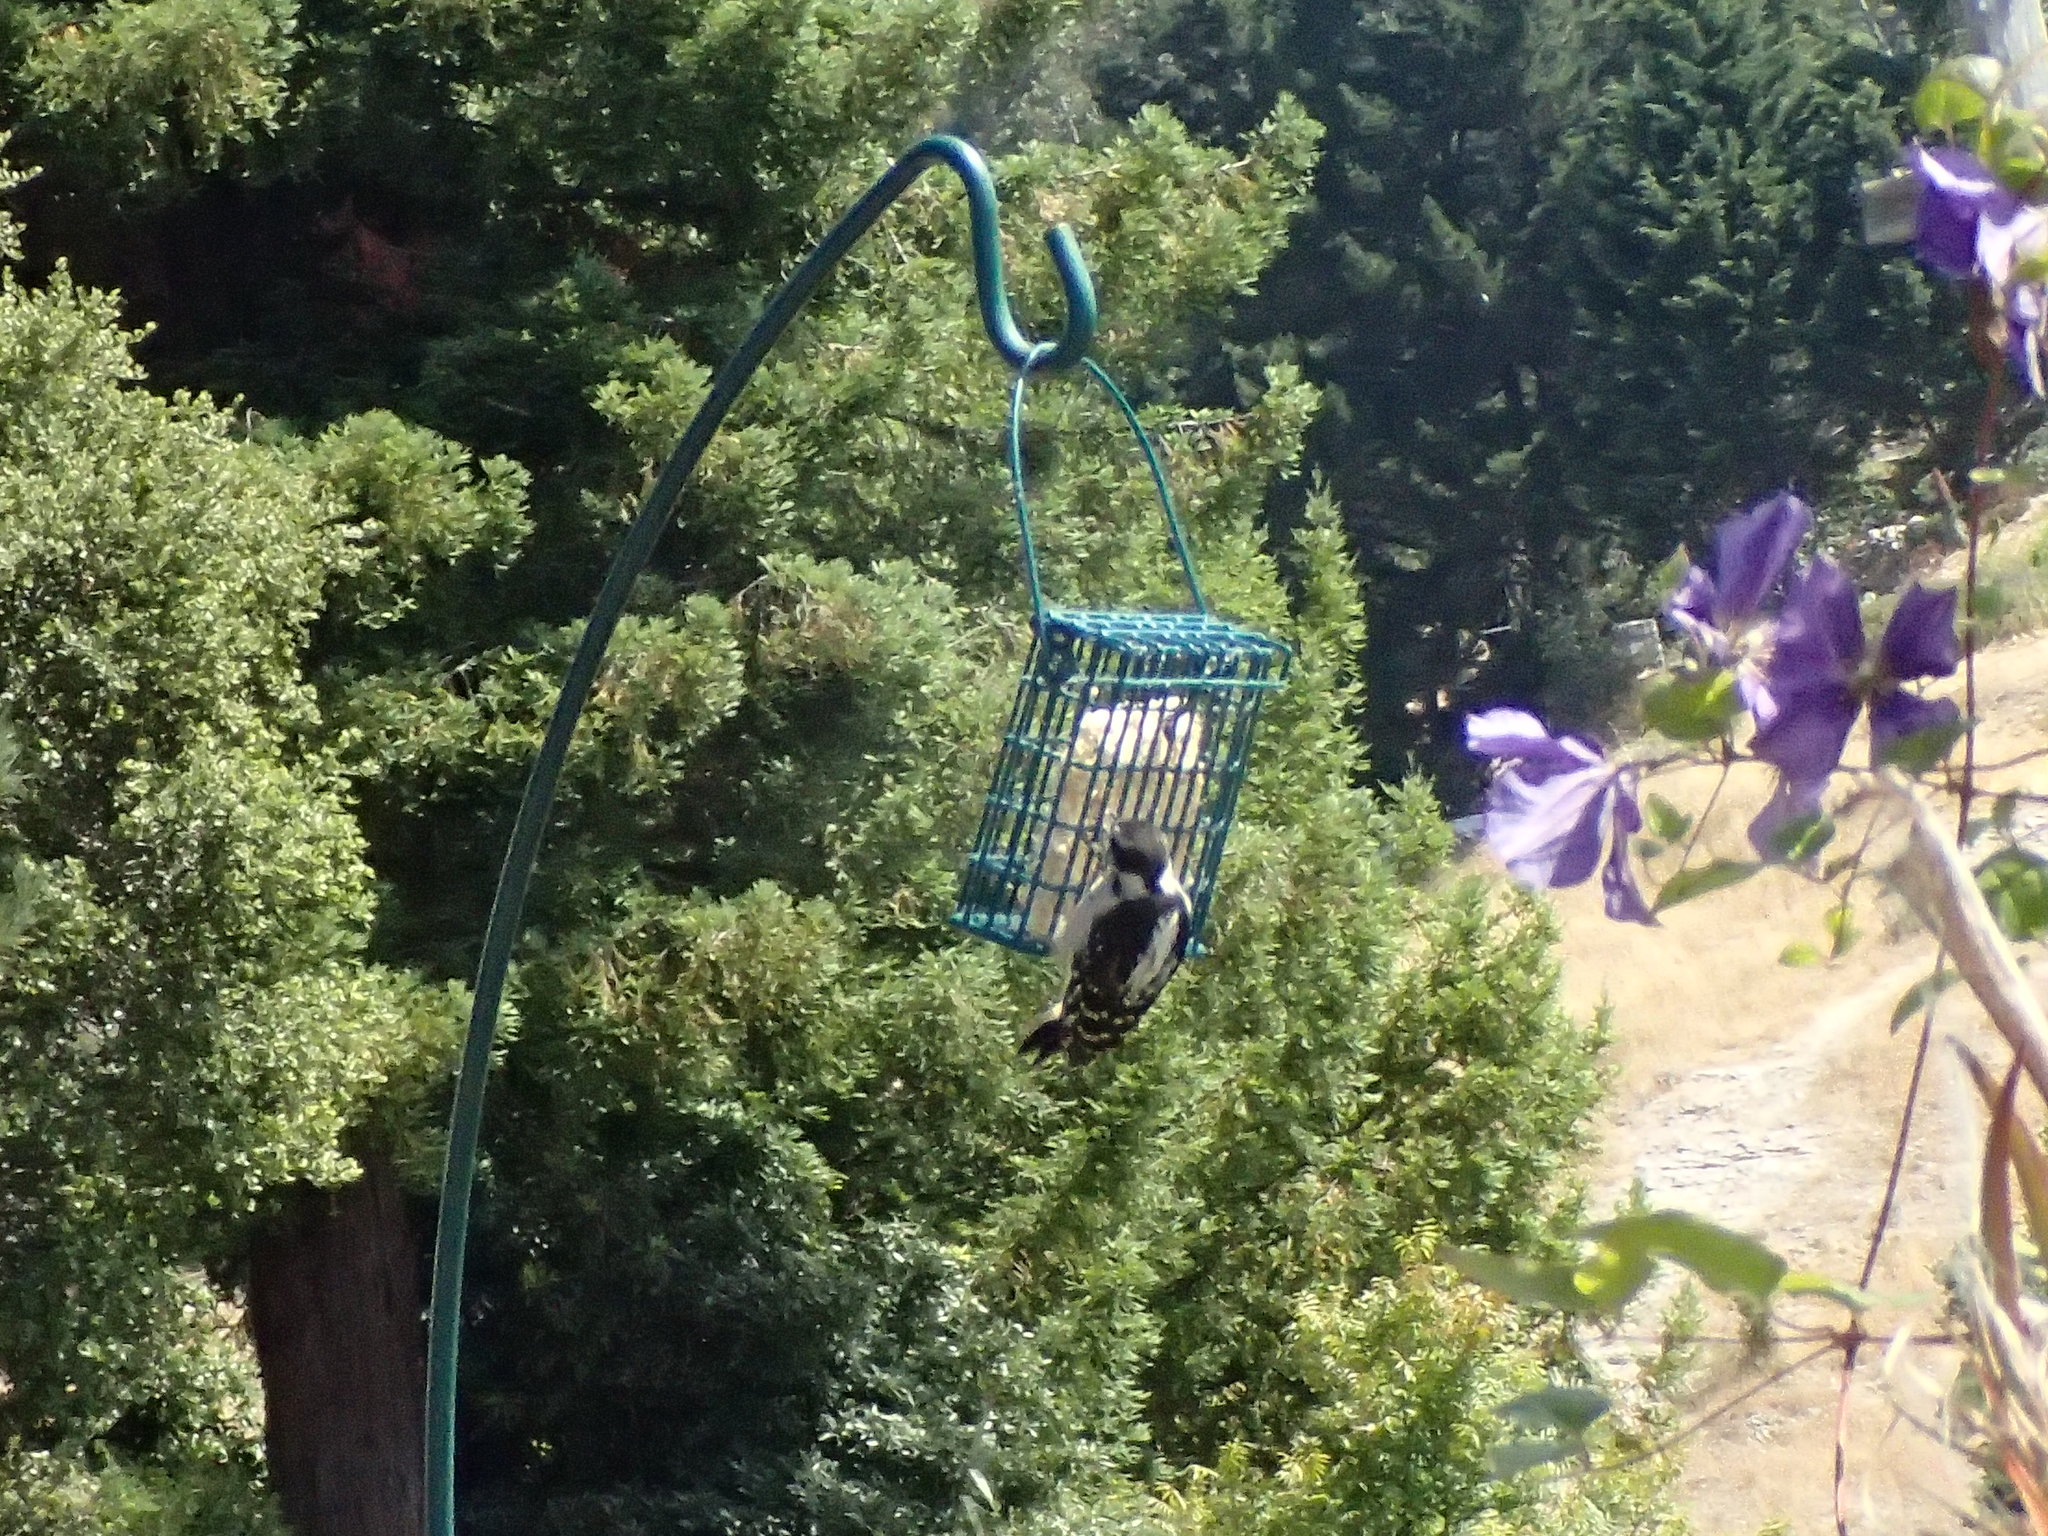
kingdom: Animalia
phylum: Chordata
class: Aves
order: Piciformes
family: Picidae
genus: Dryobates
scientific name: Dryobates pubescens
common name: Downy woodpecker
